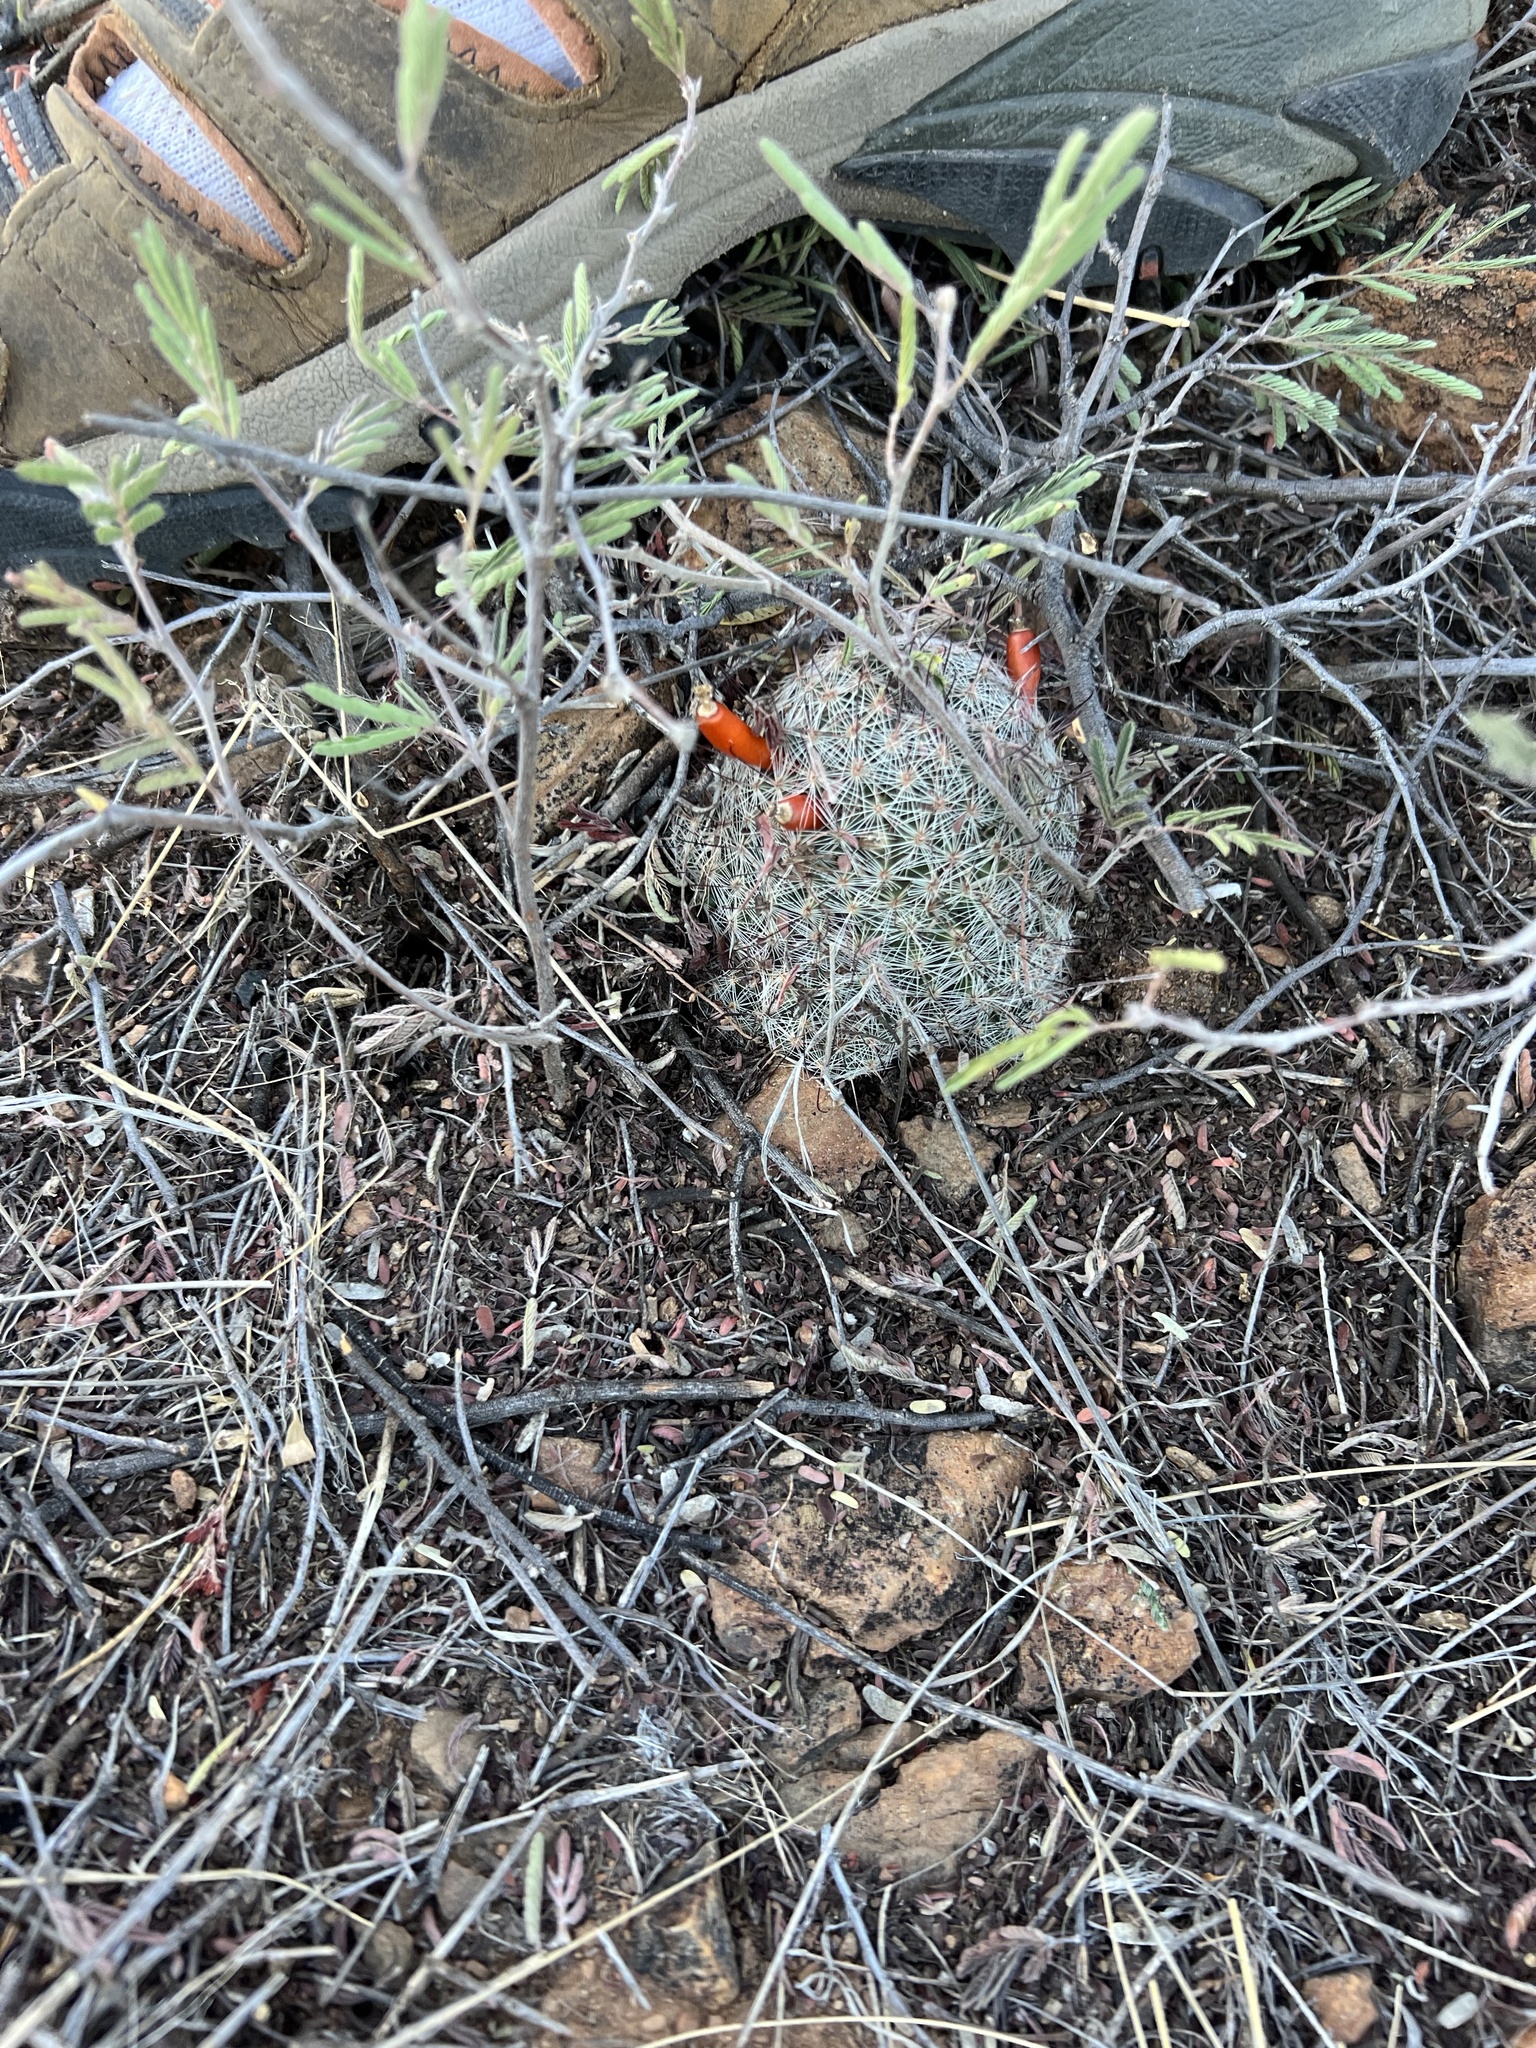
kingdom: Plantae
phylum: Tracheophyta
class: Magnoliopsida
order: Caryophyllales
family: Cactaceae
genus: Cochemiea
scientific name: Cochemiea grahamii
